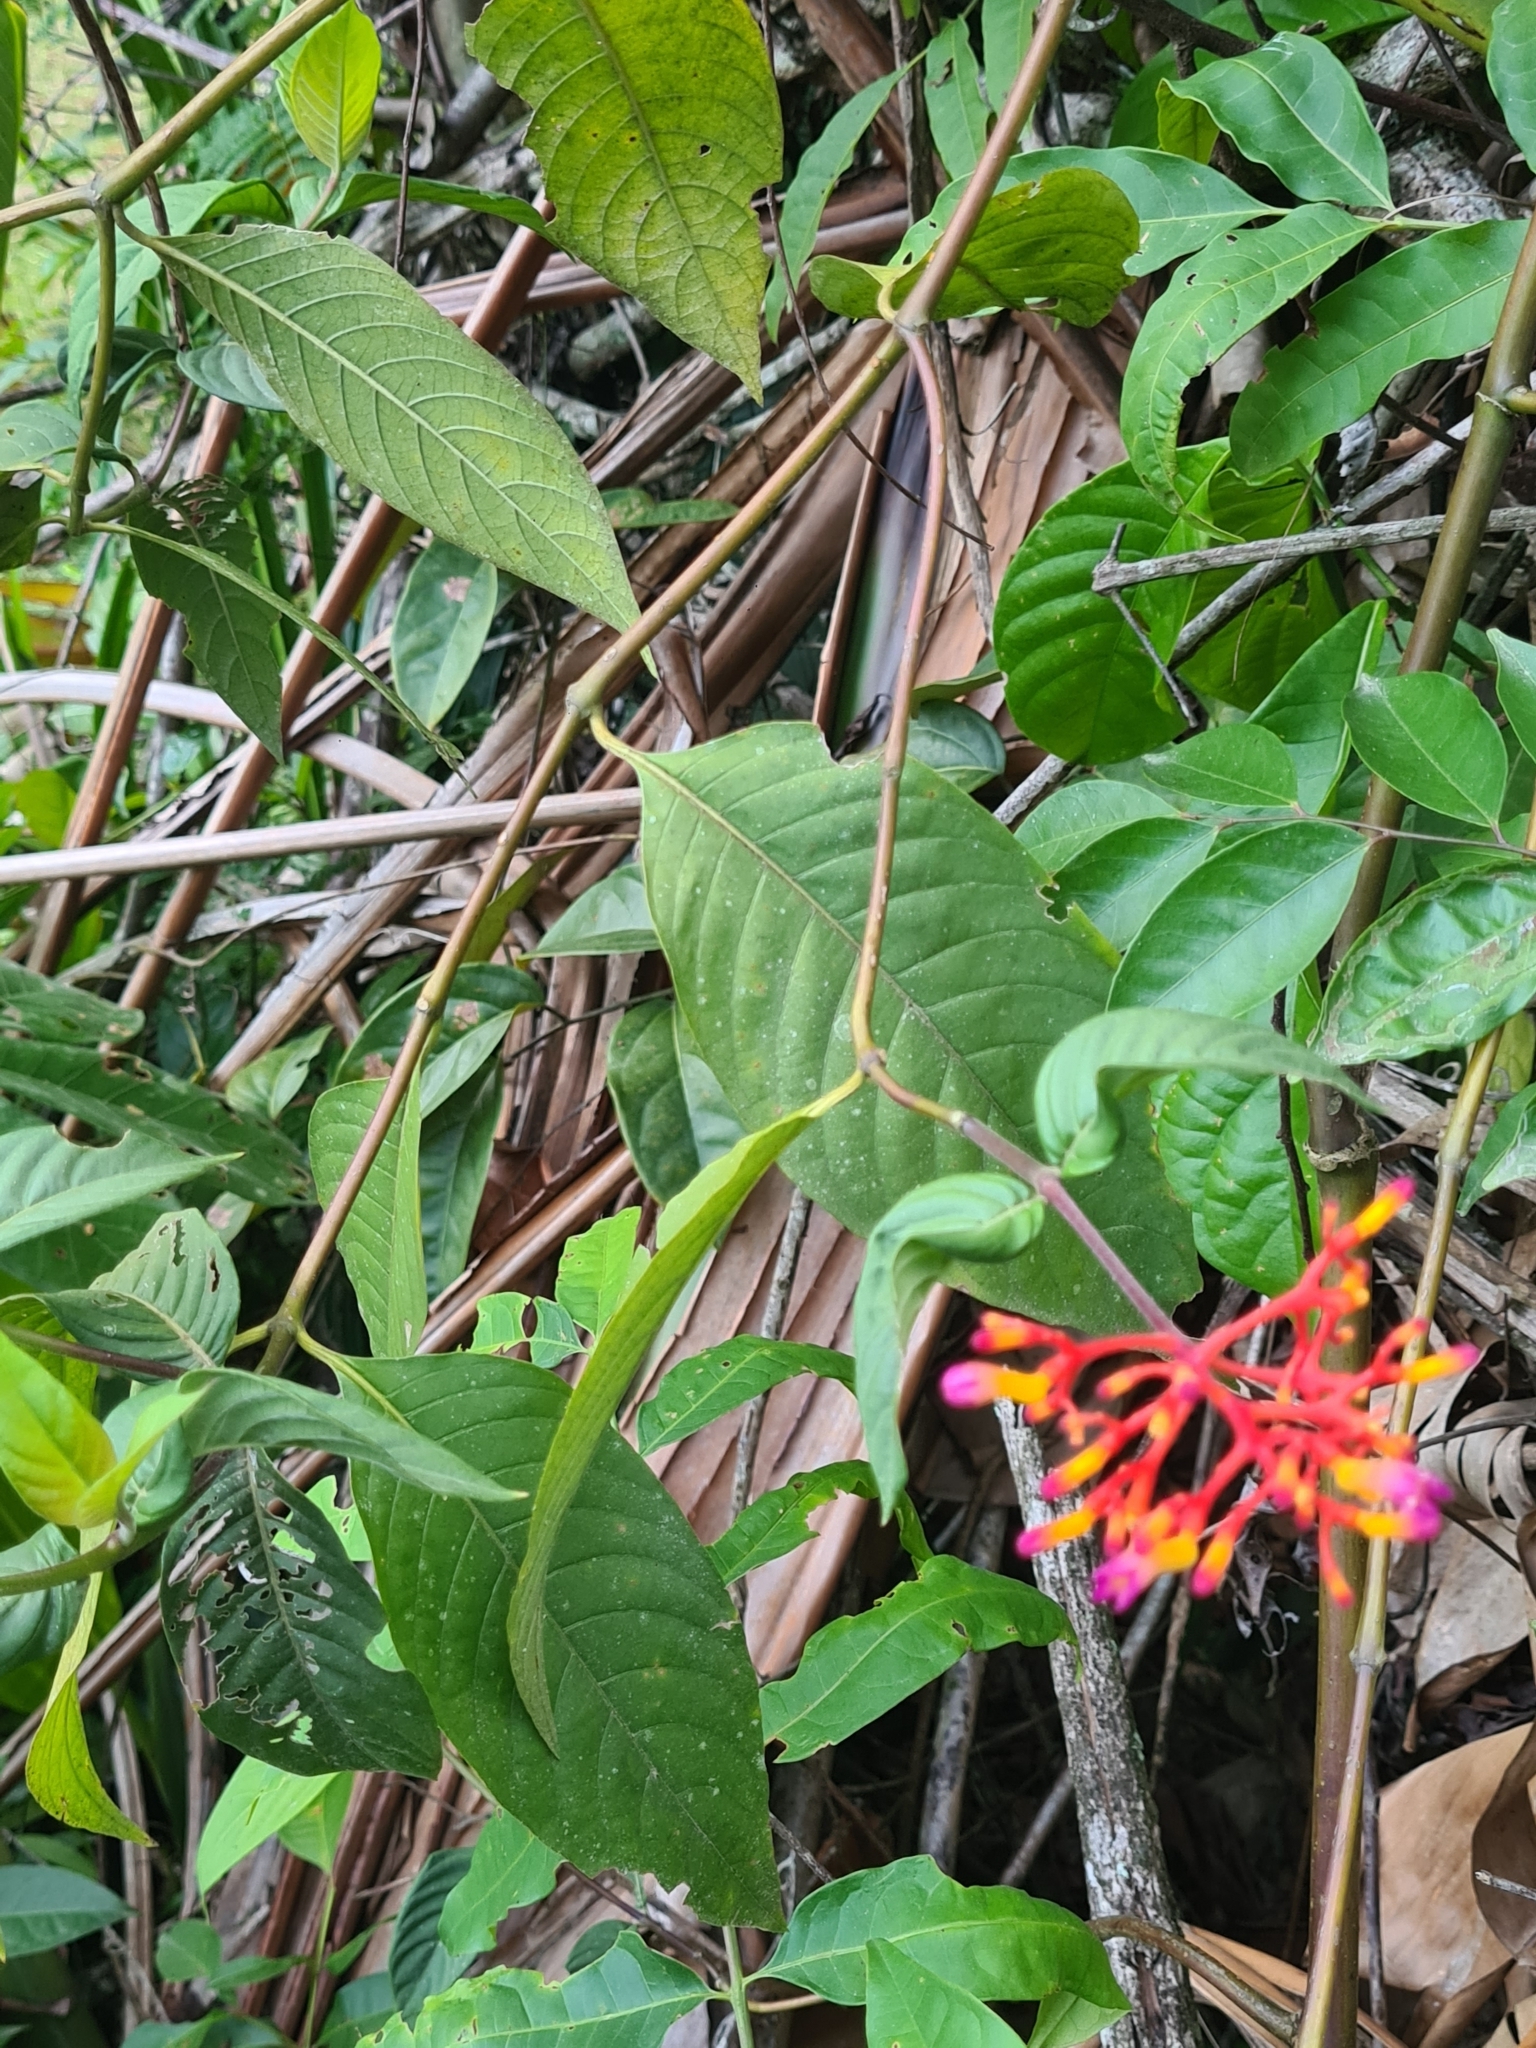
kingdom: Plantae
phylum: Tracheophyta
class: Magnoliopsida
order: Gentianales
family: Rubiaceae
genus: Palicourea
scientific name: Palicourea longiflora
